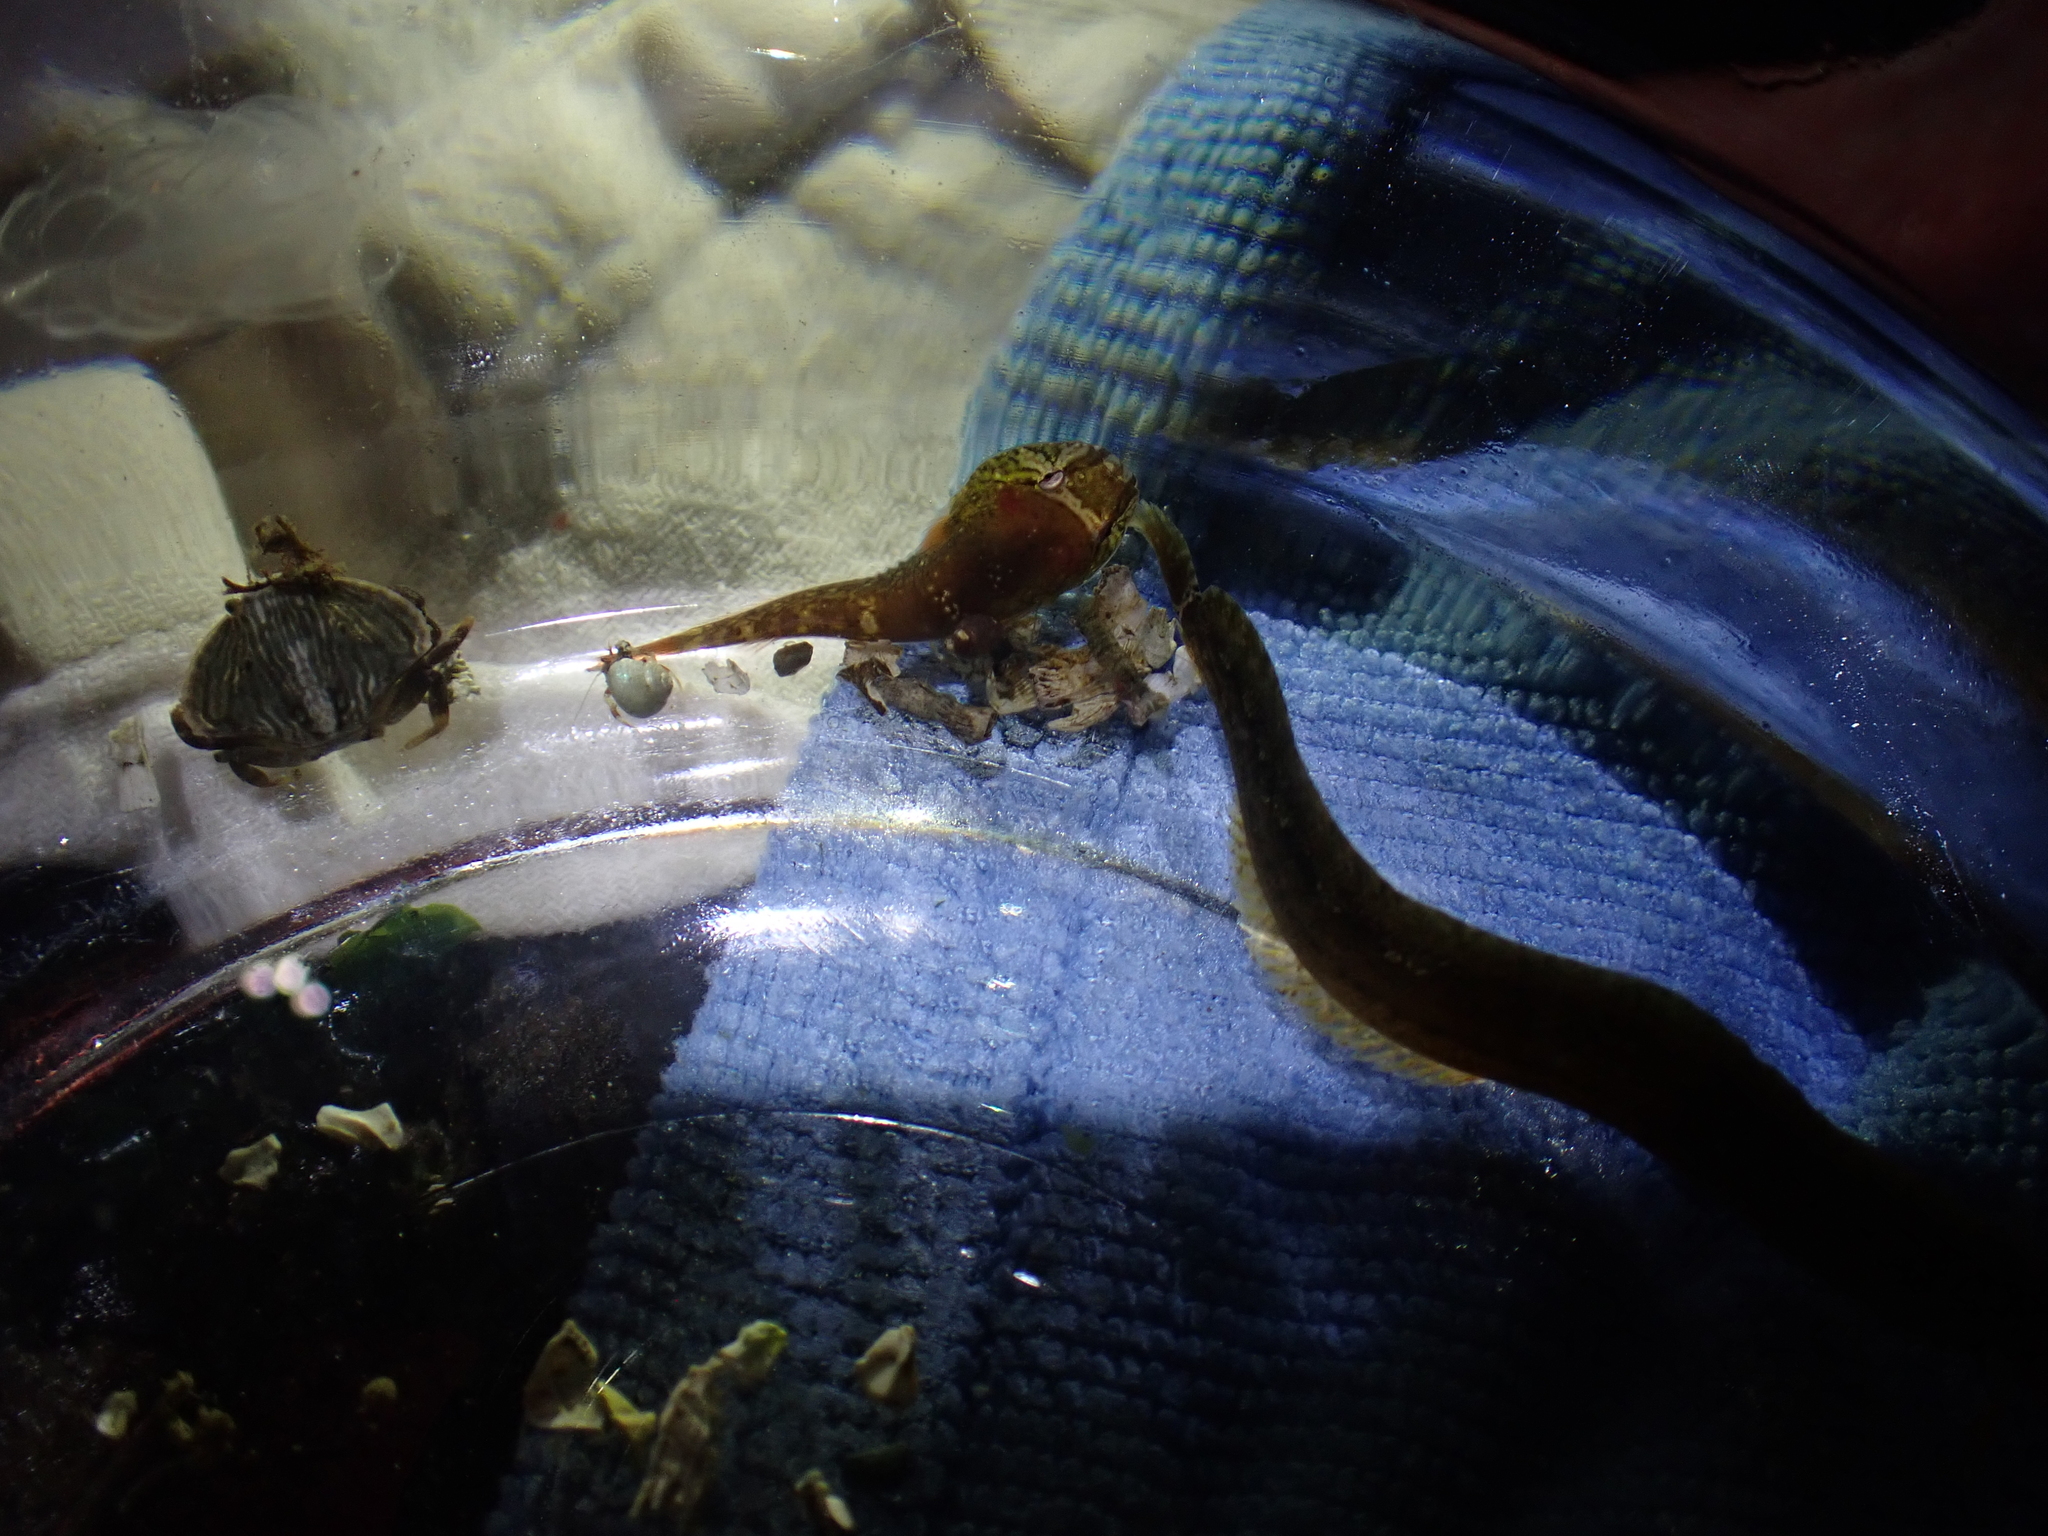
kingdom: Animalia
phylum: Chordata
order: Gobiesociformes
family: Gobiesocidae
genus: Gobiesox
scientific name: Gobiesox maeandricus
